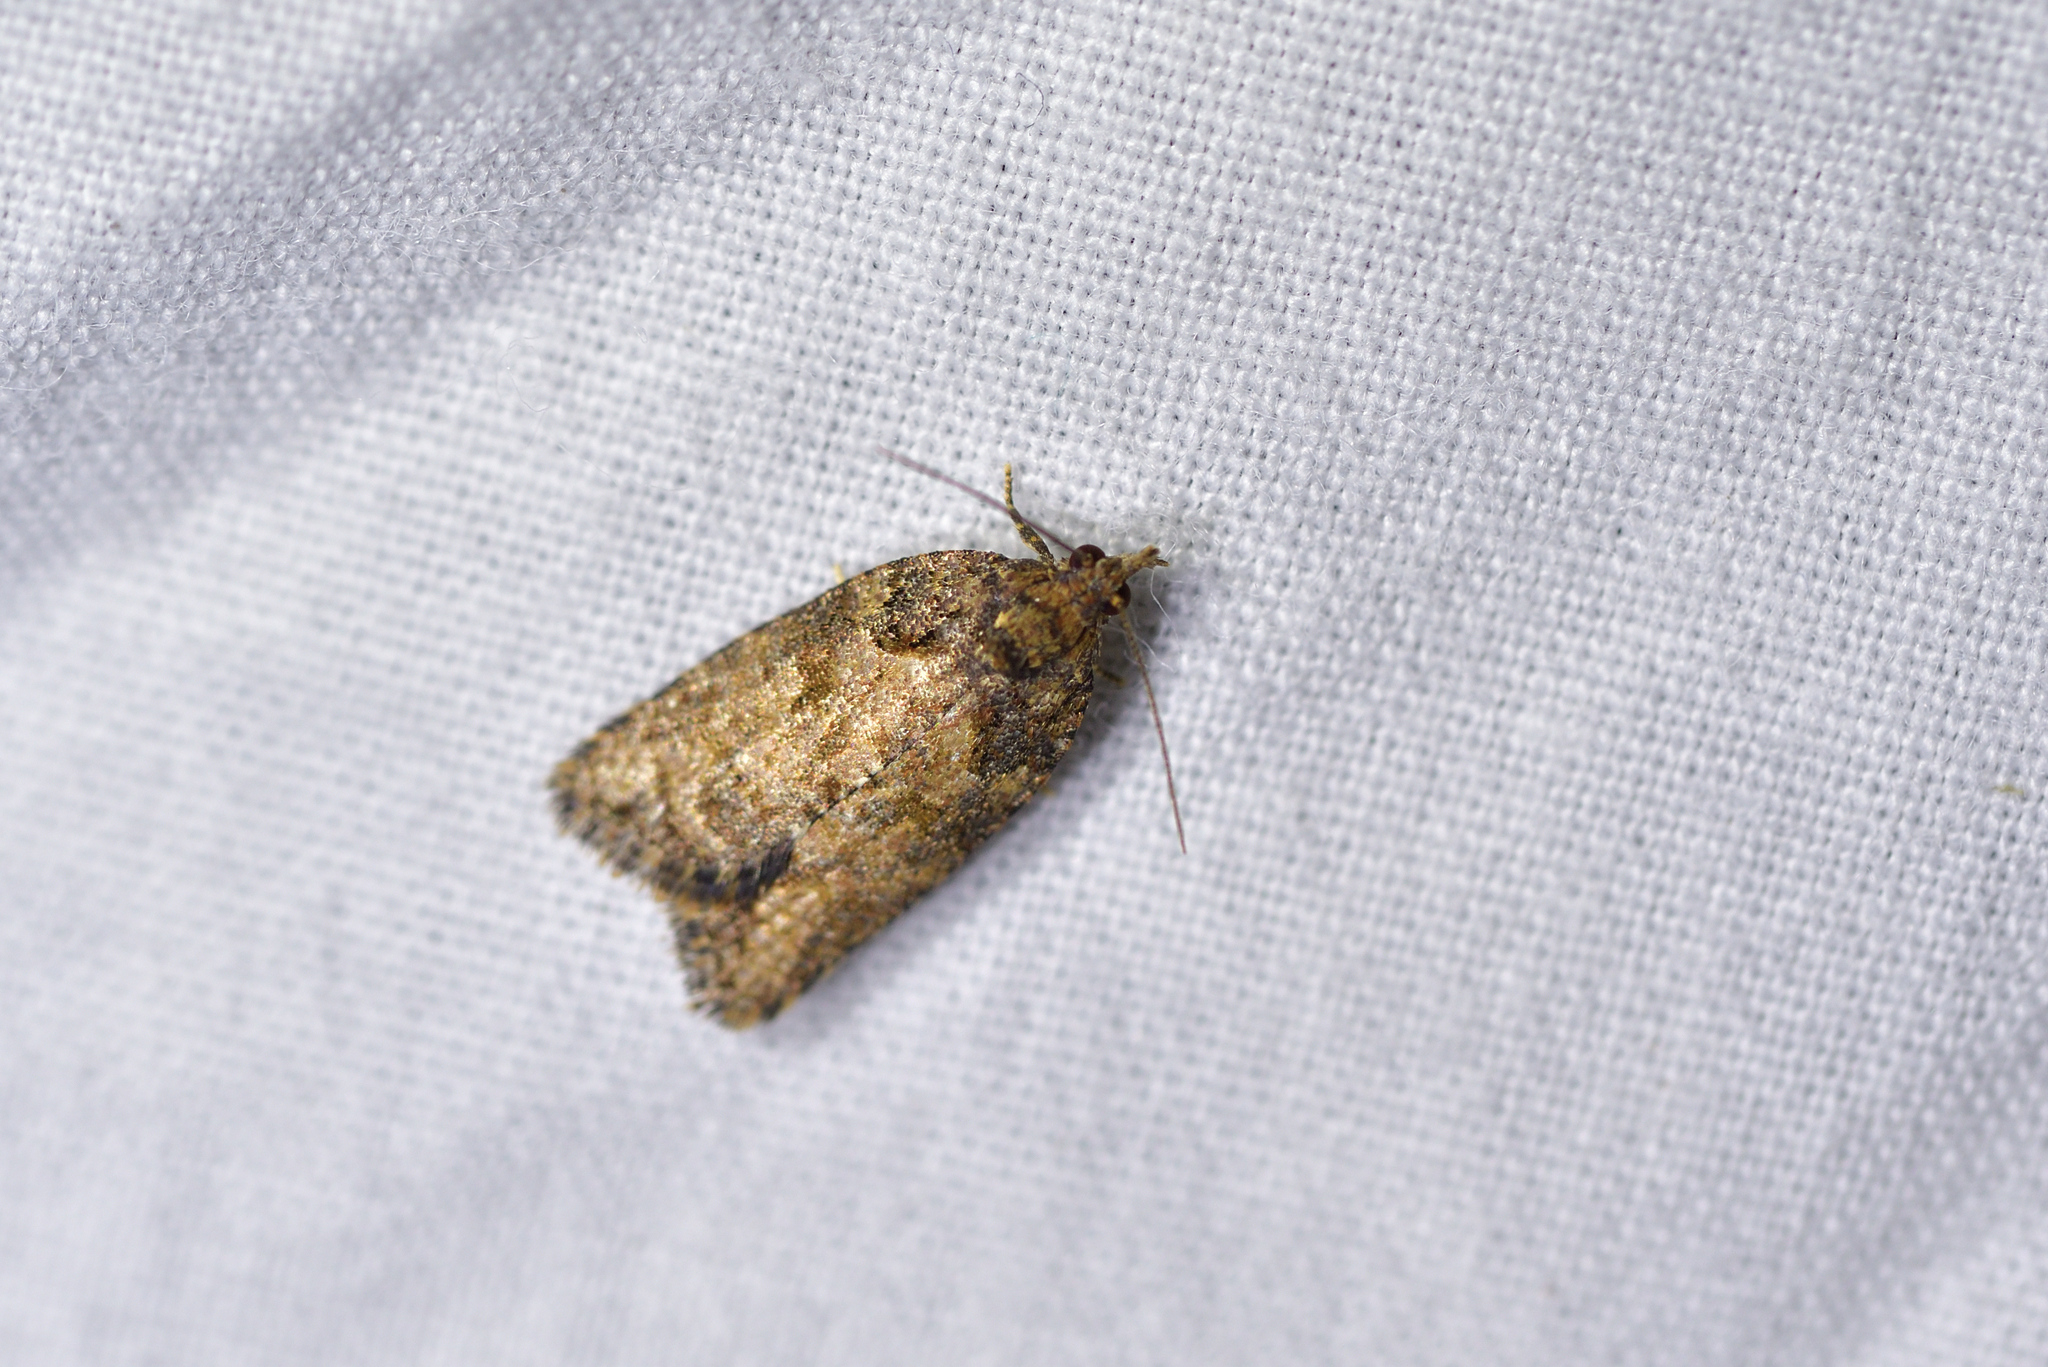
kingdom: Animalia
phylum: Arthropoda
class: Insecta
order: Lepidoptera
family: Tortricidae
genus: Capua
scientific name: Capua intractana
